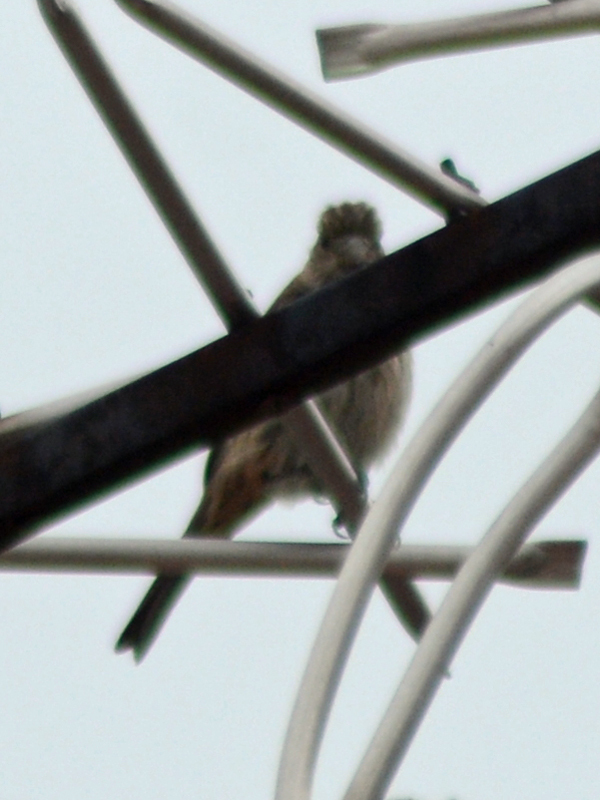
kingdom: Animalia
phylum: Chordata
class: Aves
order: Passeriformes
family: Passerellidae
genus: Melozone
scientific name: Melozone fusca
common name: Canyon towhee
